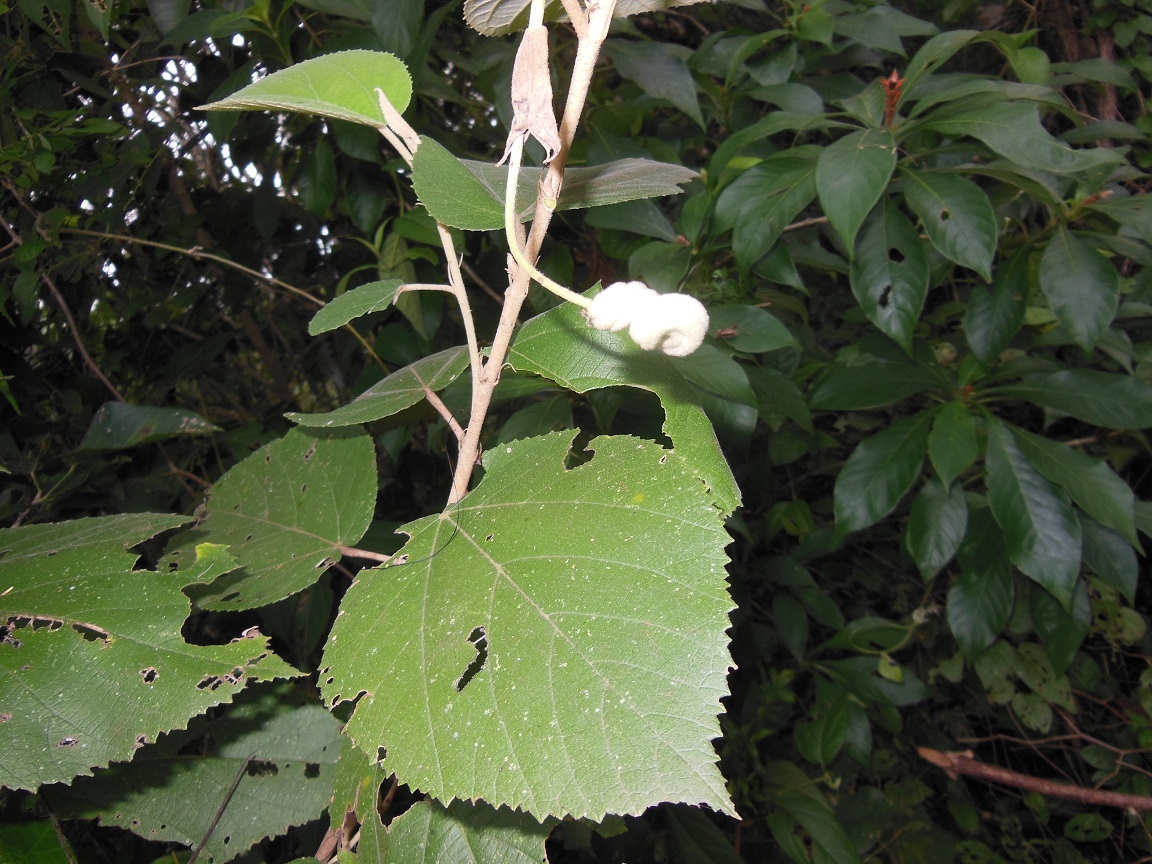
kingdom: Plantae
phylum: Tracheophyta
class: Magnoliopsida
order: Malvales
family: Malvaceae
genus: Helicteres
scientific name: Helicteres baruensis
